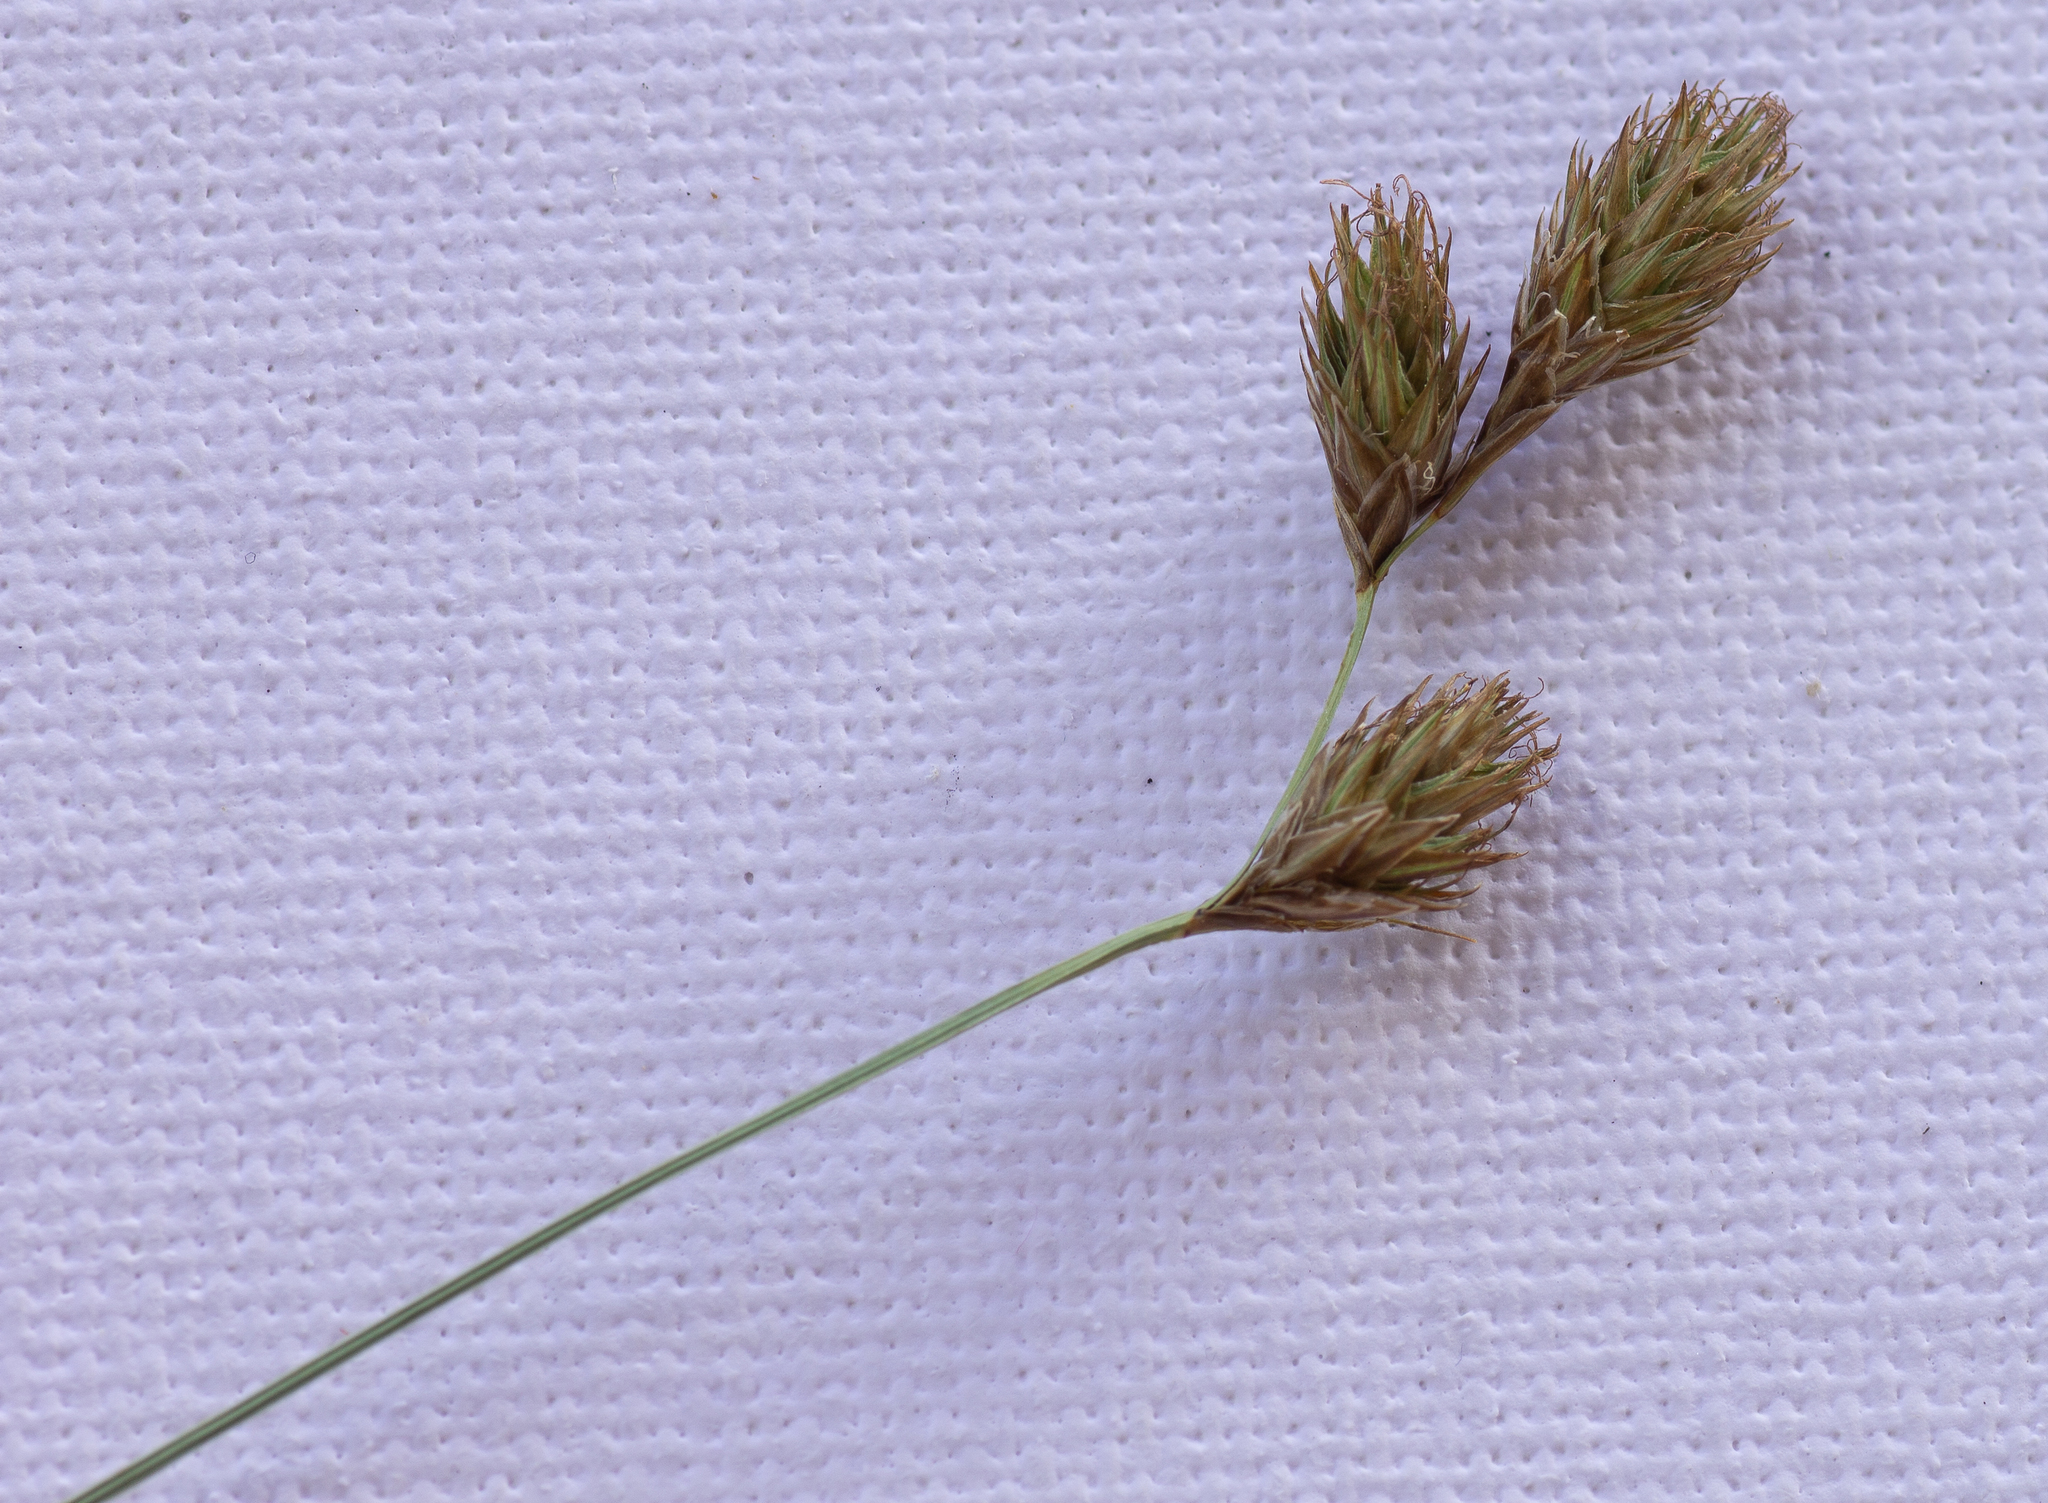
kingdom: Plantae
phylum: Tracheophyta
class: Liliopsida
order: Poales
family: Cyperaceae
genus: Carex
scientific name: Carex leporina
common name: Oval sedge
